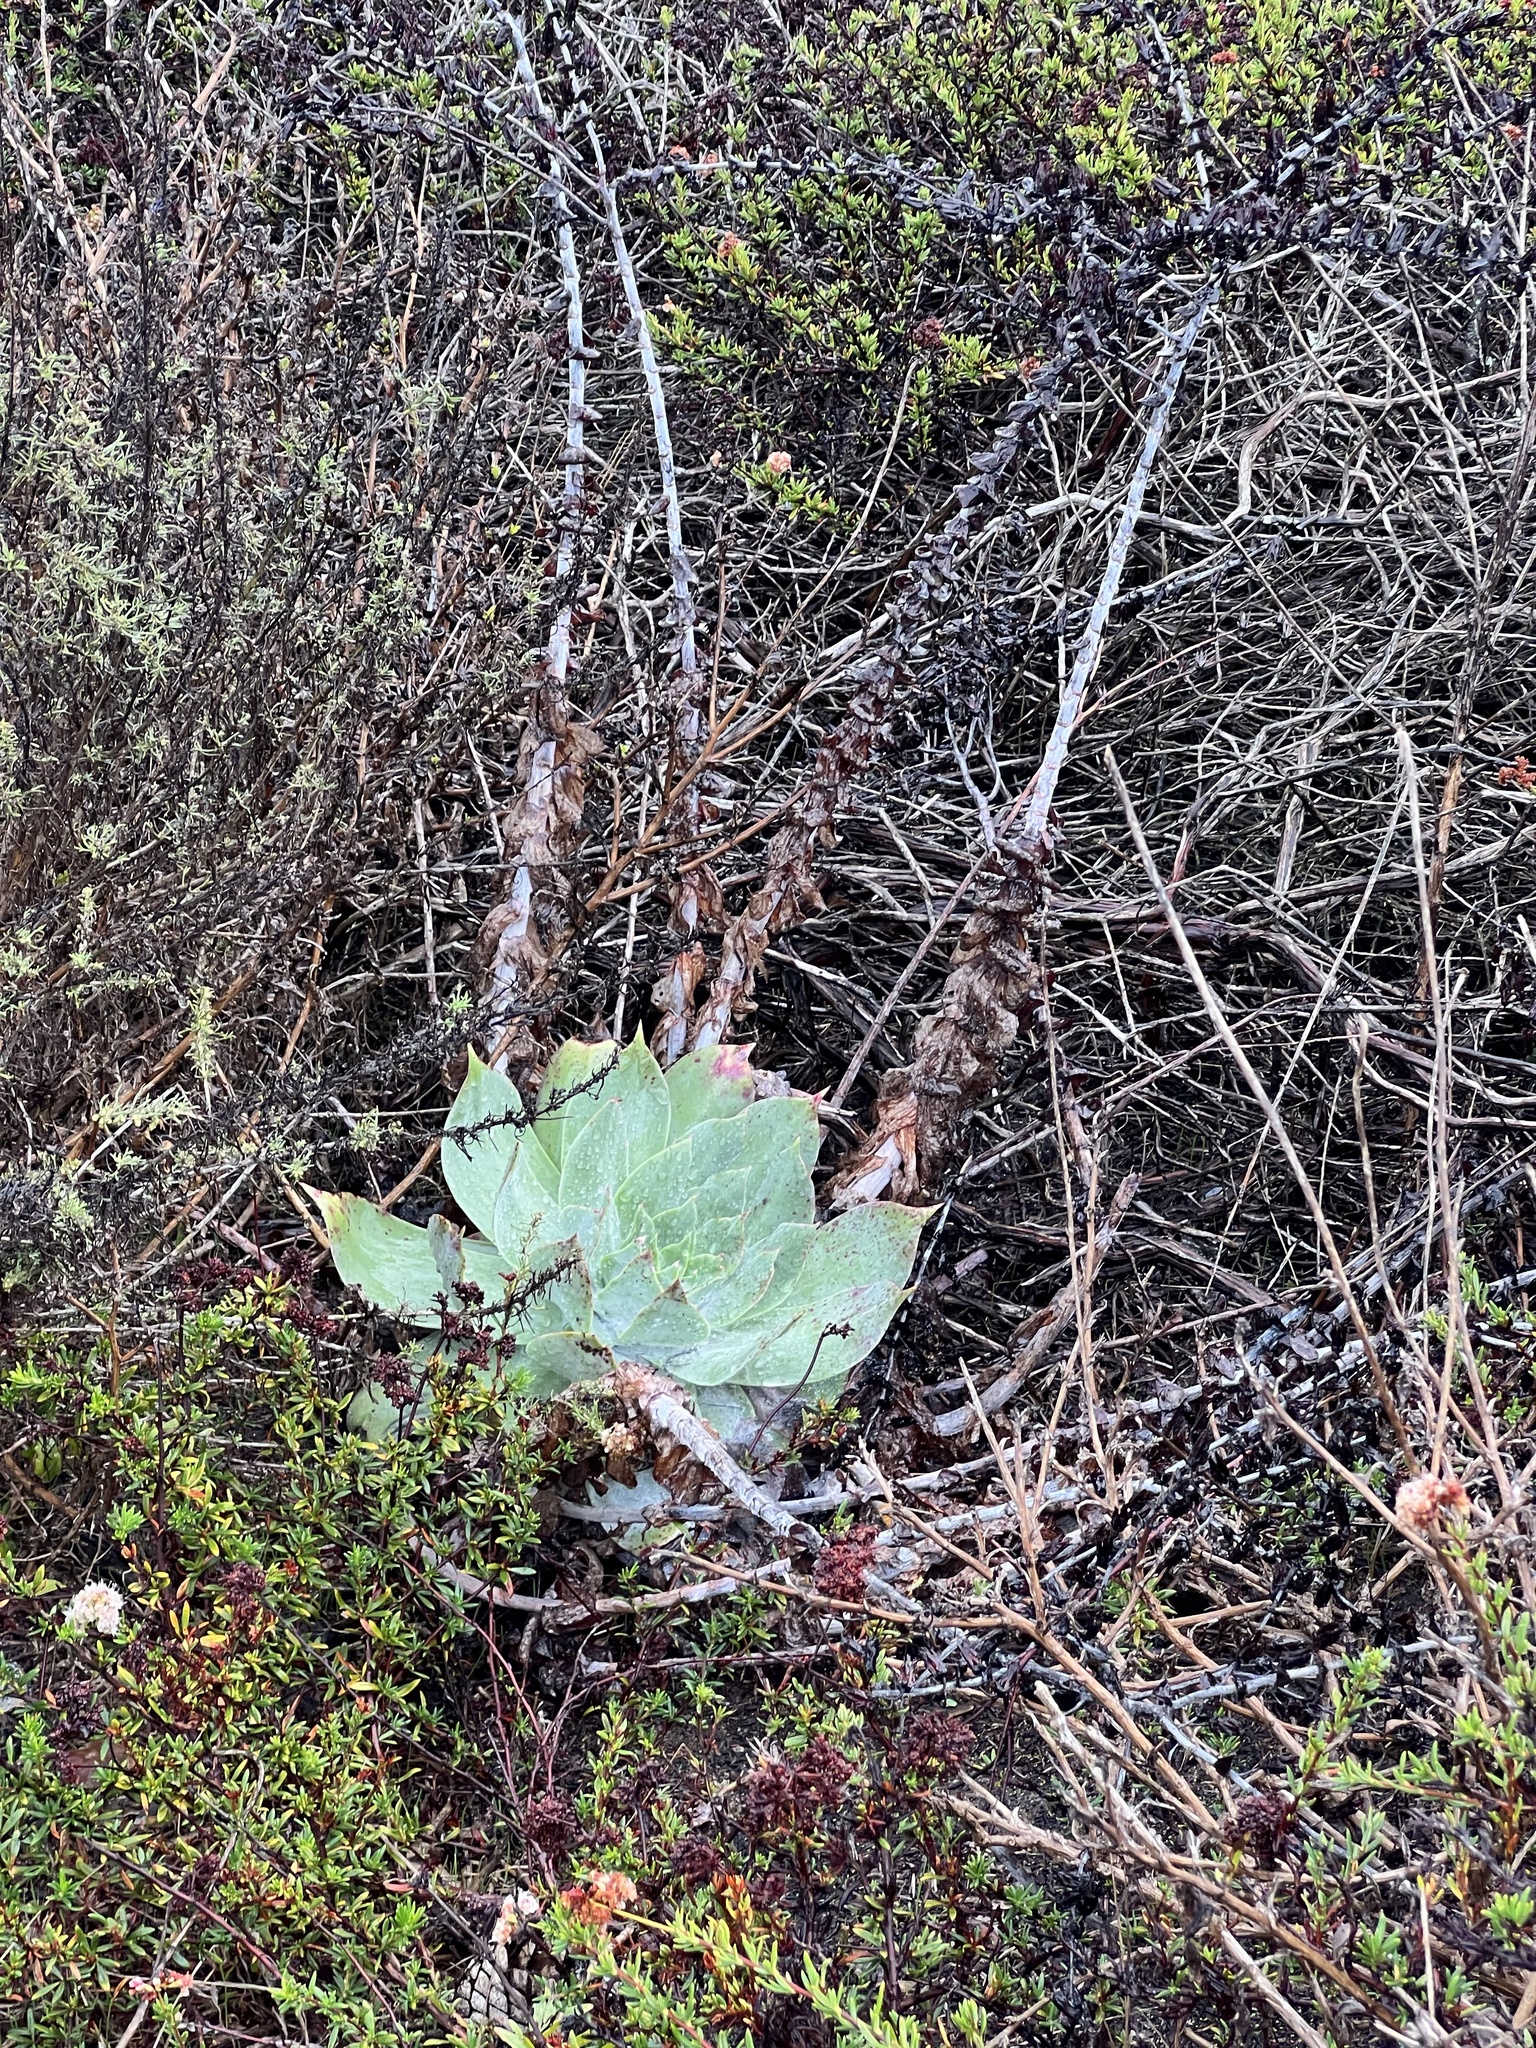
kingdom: Plantae
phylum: Tracheophyta
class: Magnoliopsida
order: Saxifragales
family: Crassulaceae
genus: Dudleya
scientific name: Dudleya pulverulenta
